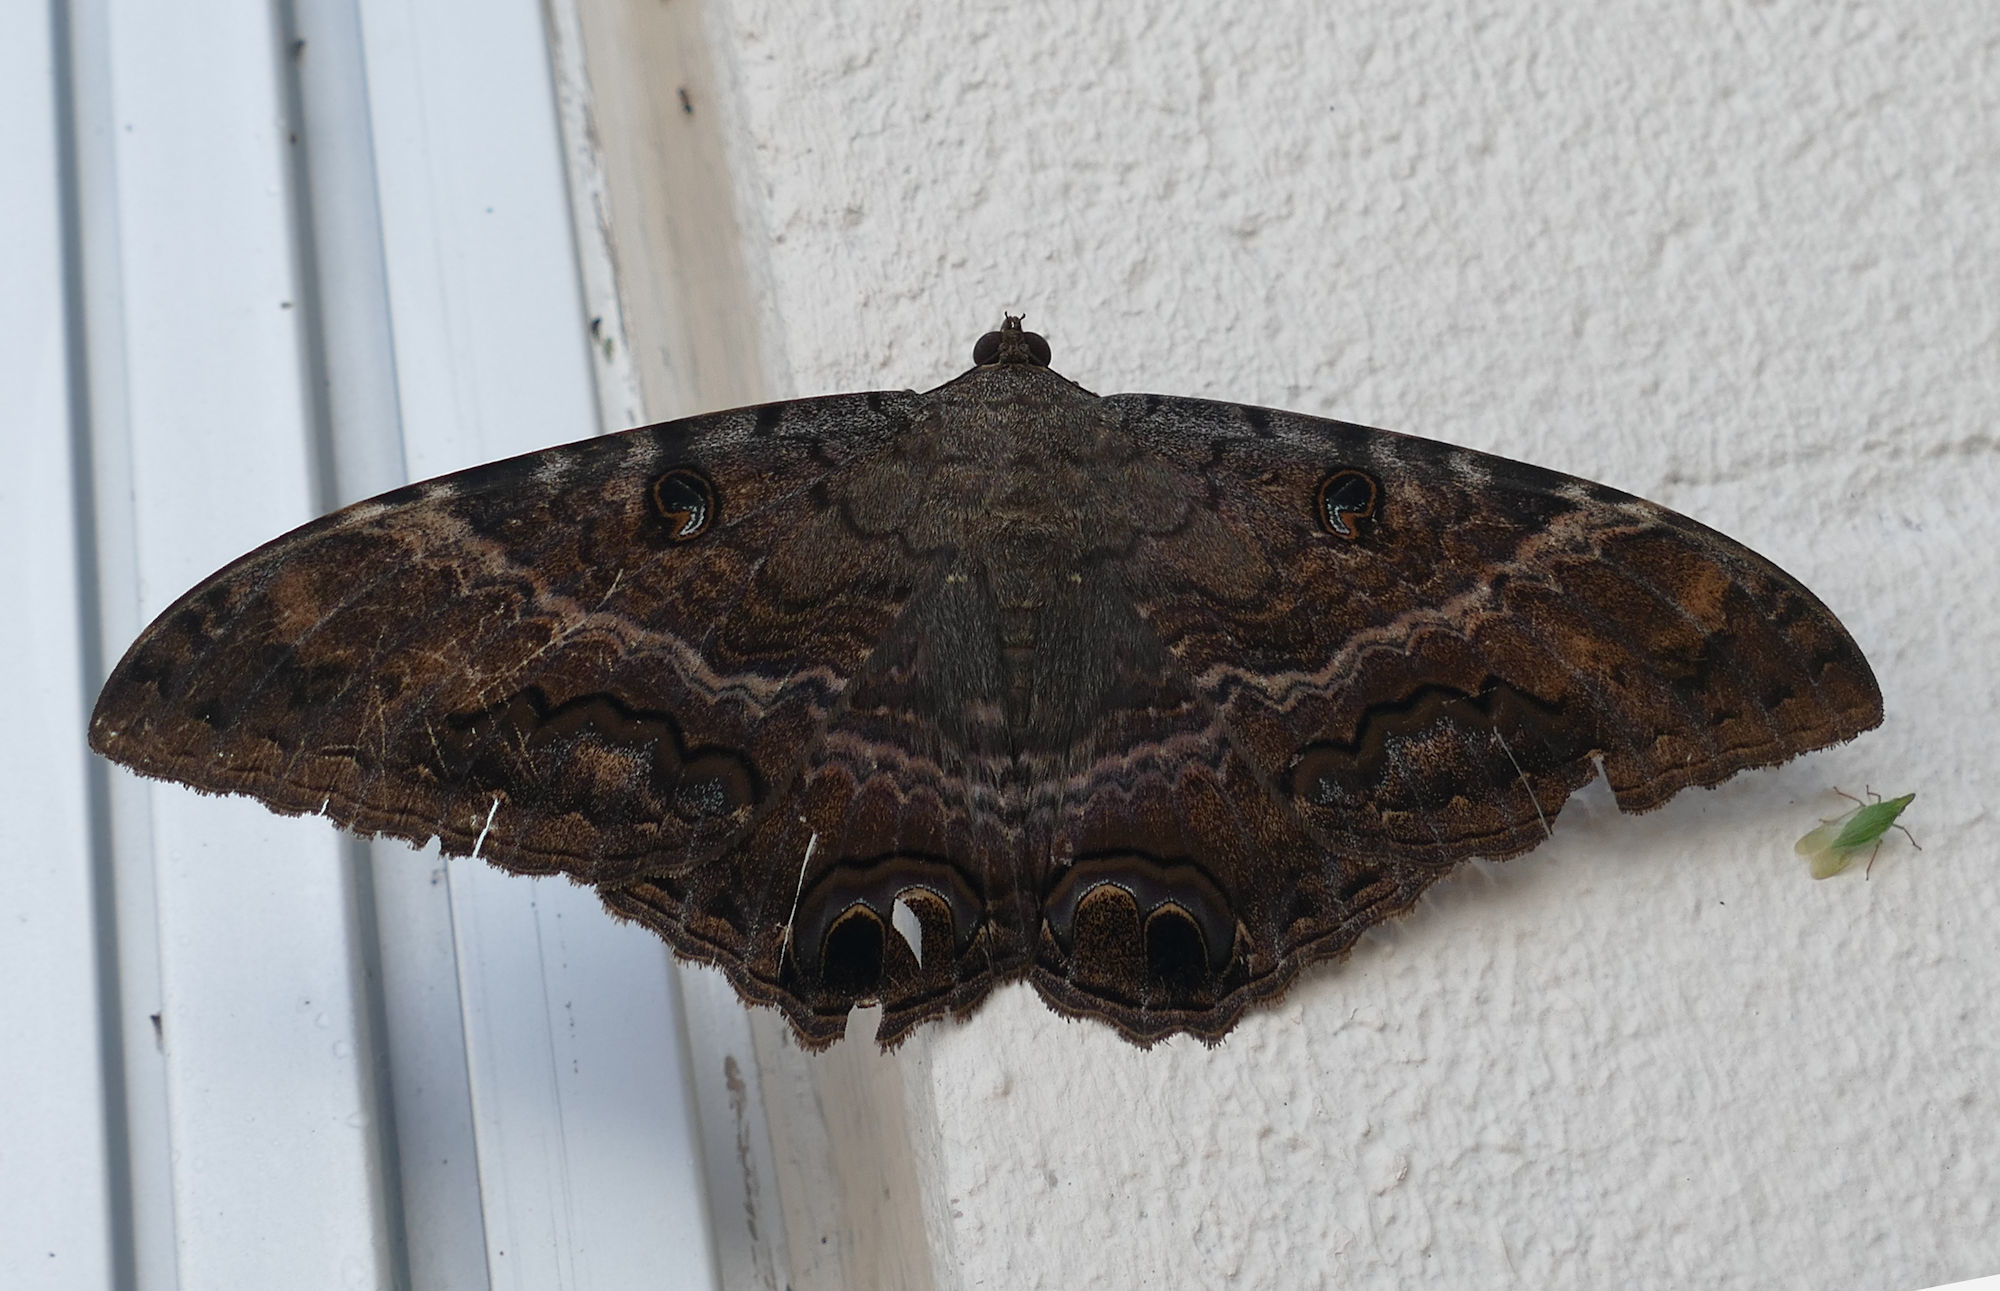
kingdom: Animalia
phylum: Arthropoda
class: Insecta
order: Lepidoptera
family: Erebidae
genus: Ascalapha
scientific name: Ascalapha odorata
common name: Black witch
